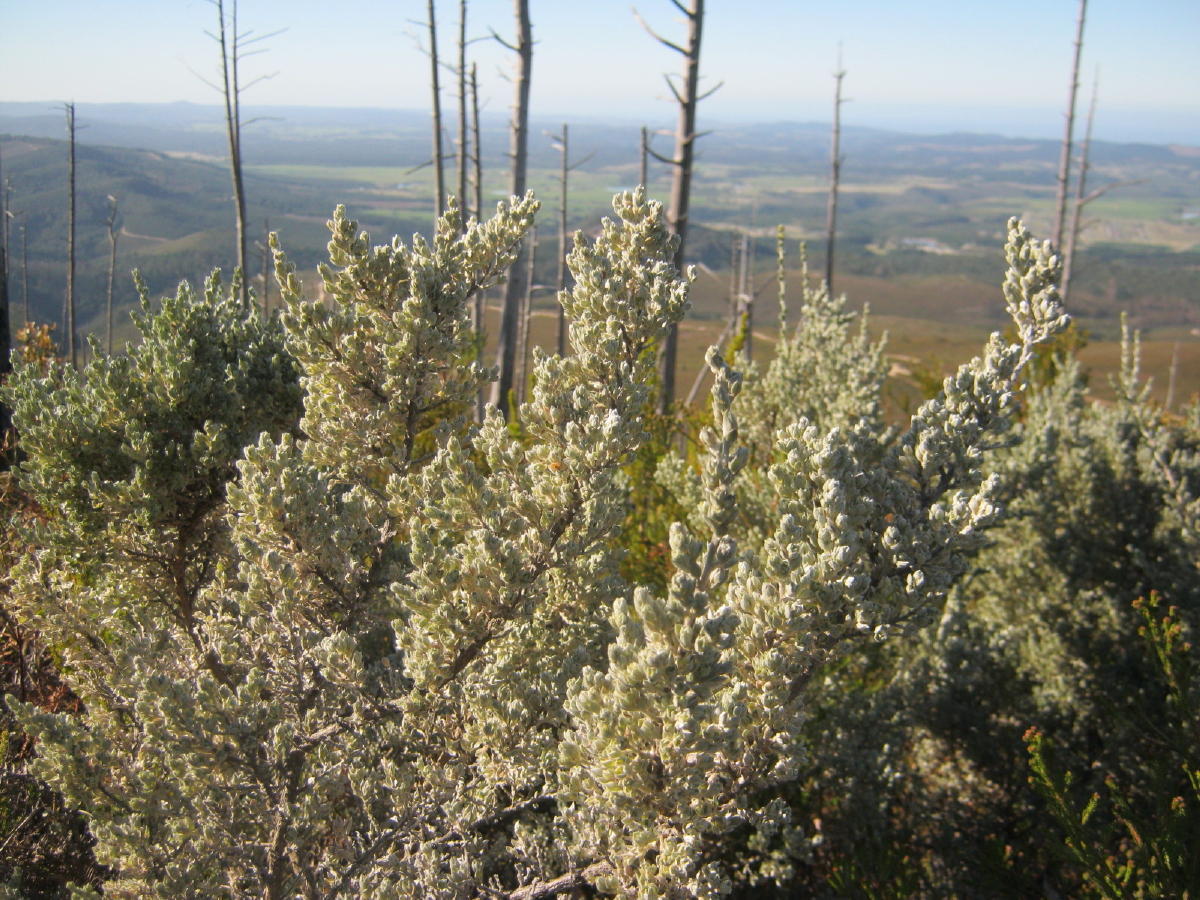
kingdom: Plantae
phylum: Tracheophyta
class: Magnoliopsida
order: Fabales
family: Fabaceae
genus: Amphithalea
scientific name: Amphithalea fourcadei
